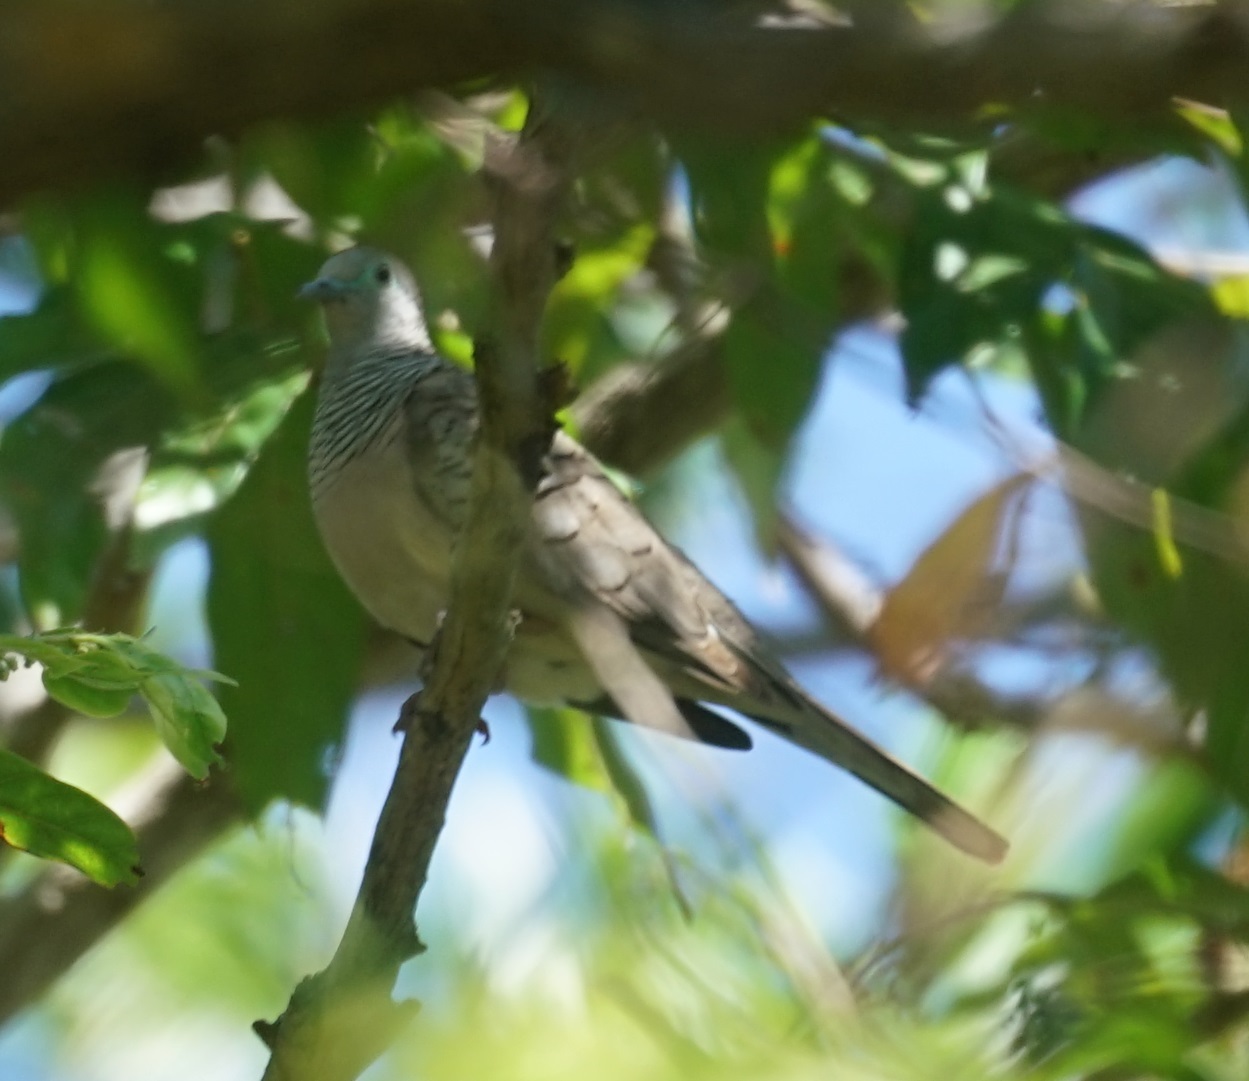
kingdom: Animalia
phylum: Chordata
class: Aves
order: Columbiformes
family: Columbidae
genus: Geopelia
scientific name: Geopelia placida
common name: Peaceful dove
